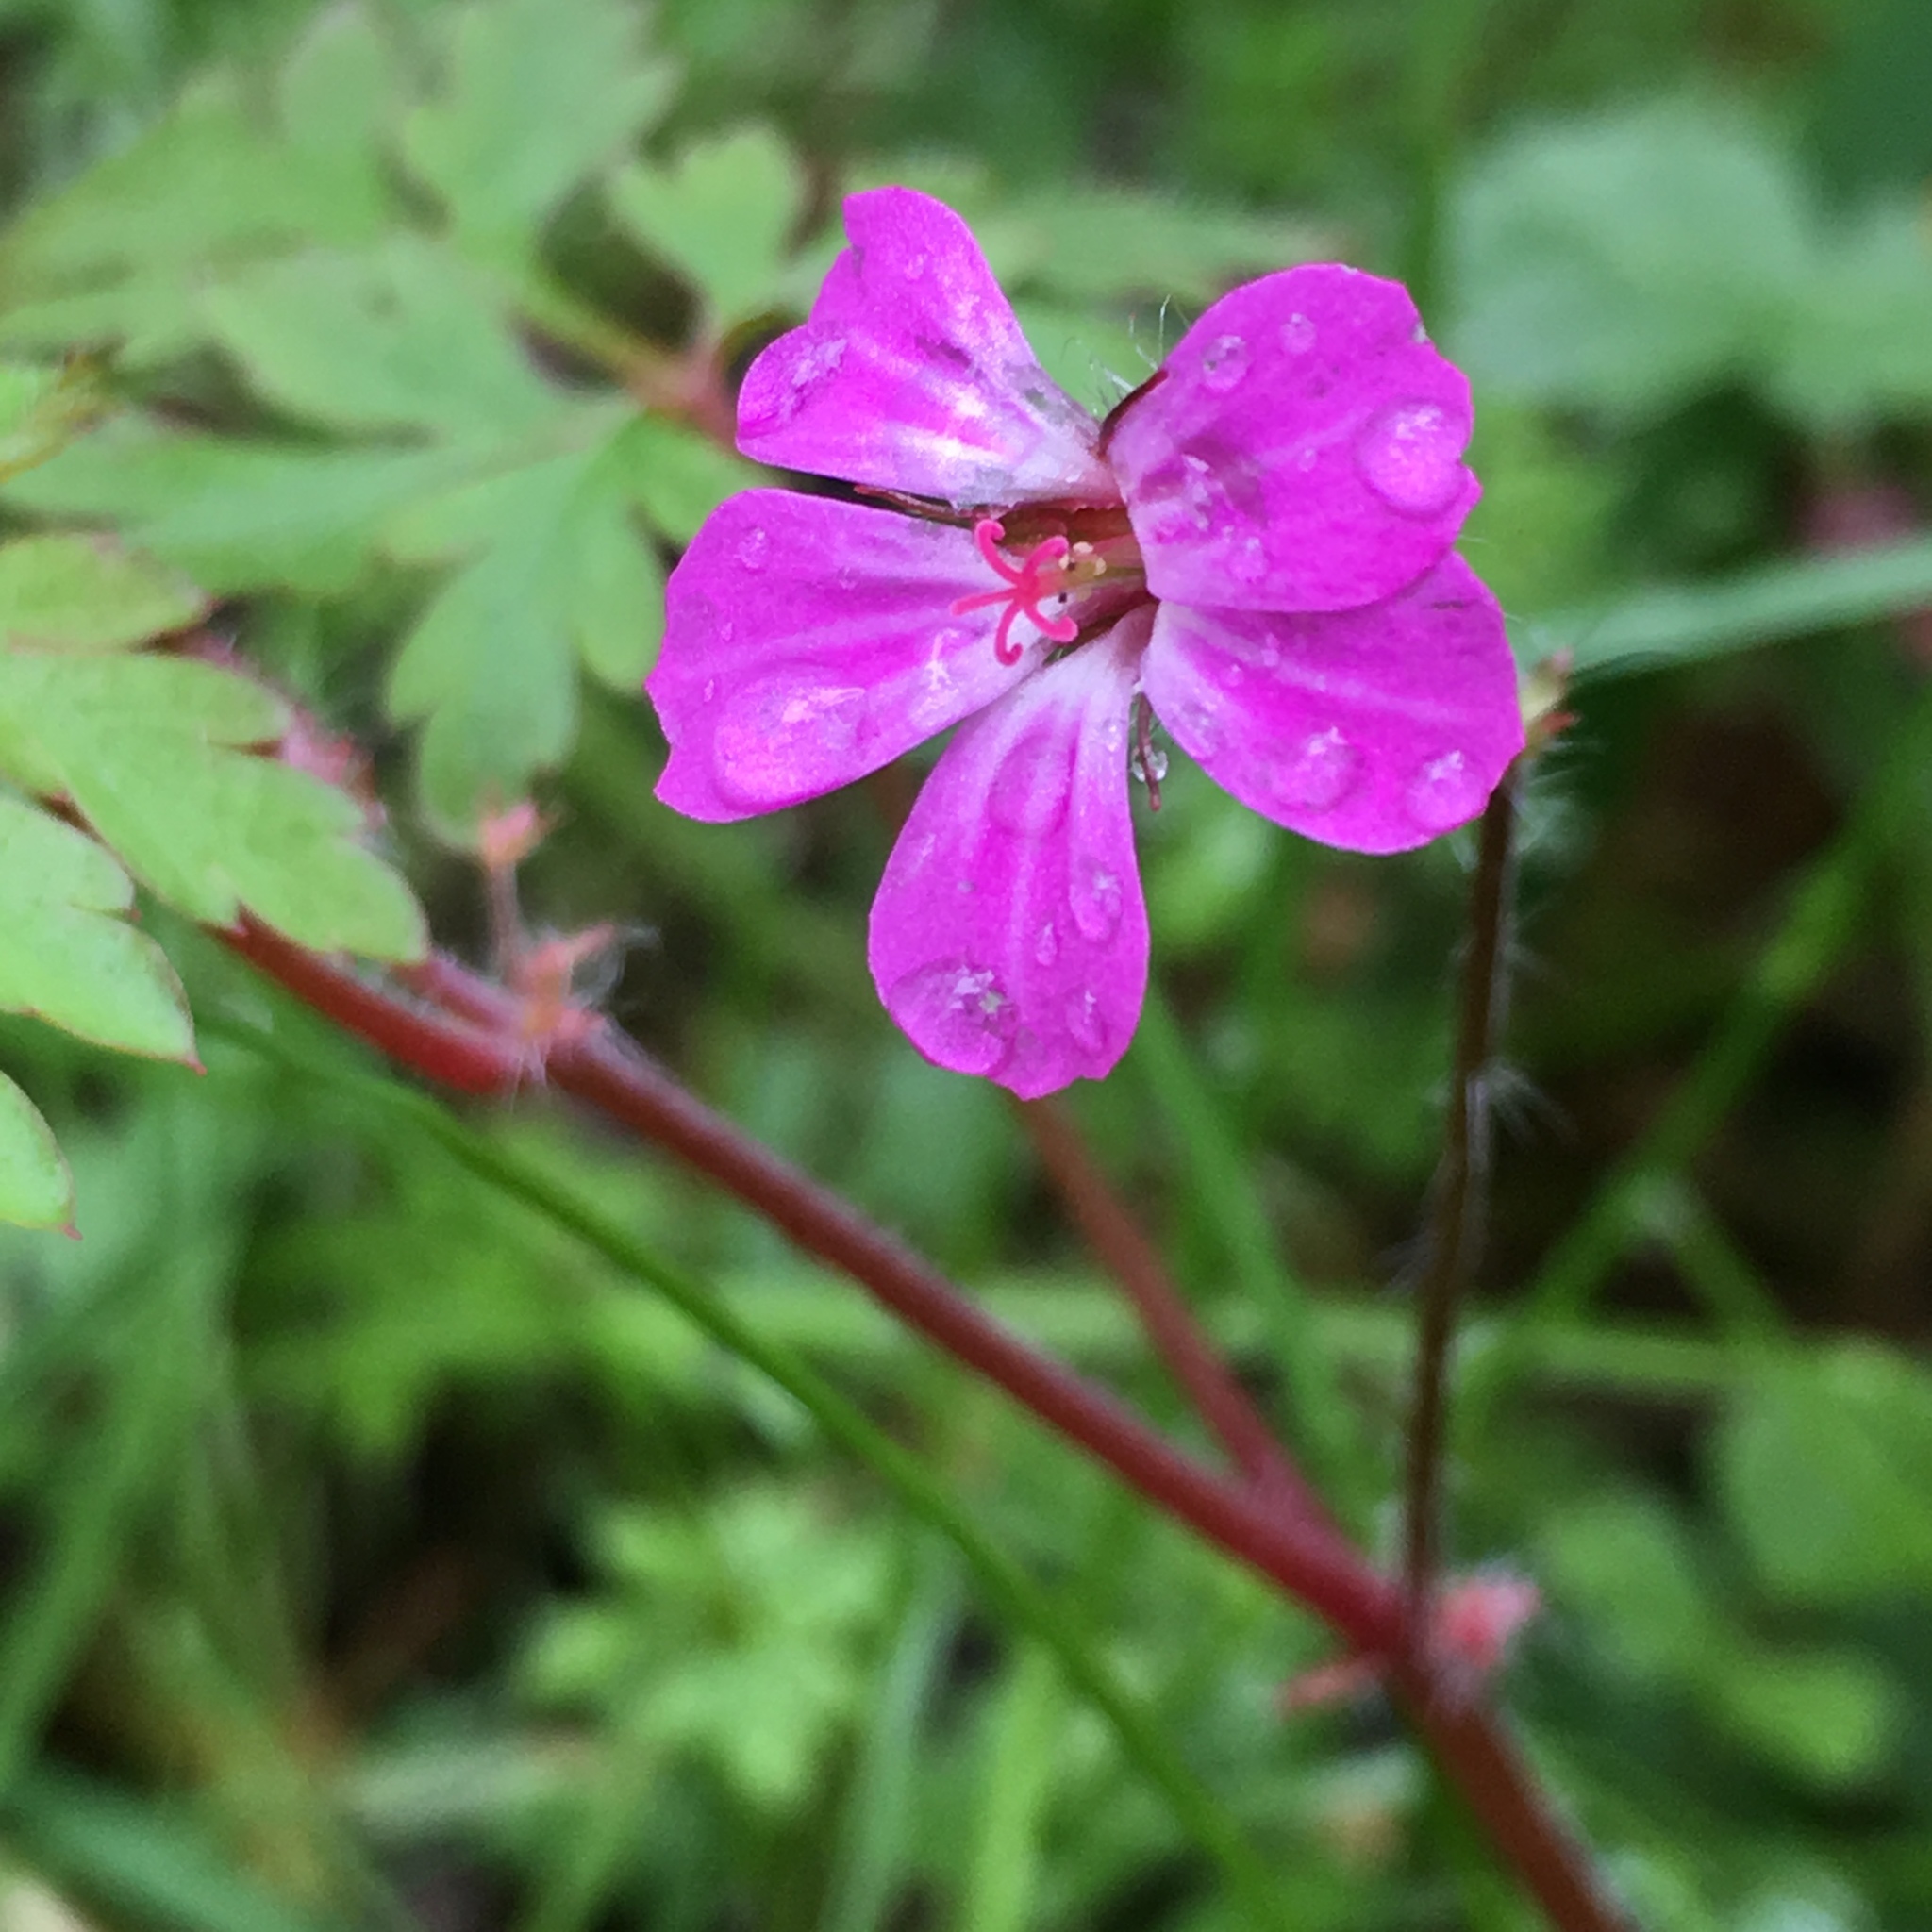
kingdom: Plantae
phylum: Tracheophyta
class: Magnoliopsida
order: Geraniales
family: Geraniaceae
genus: Geranium
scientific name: Geranium robertianum
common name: Herb-robert
